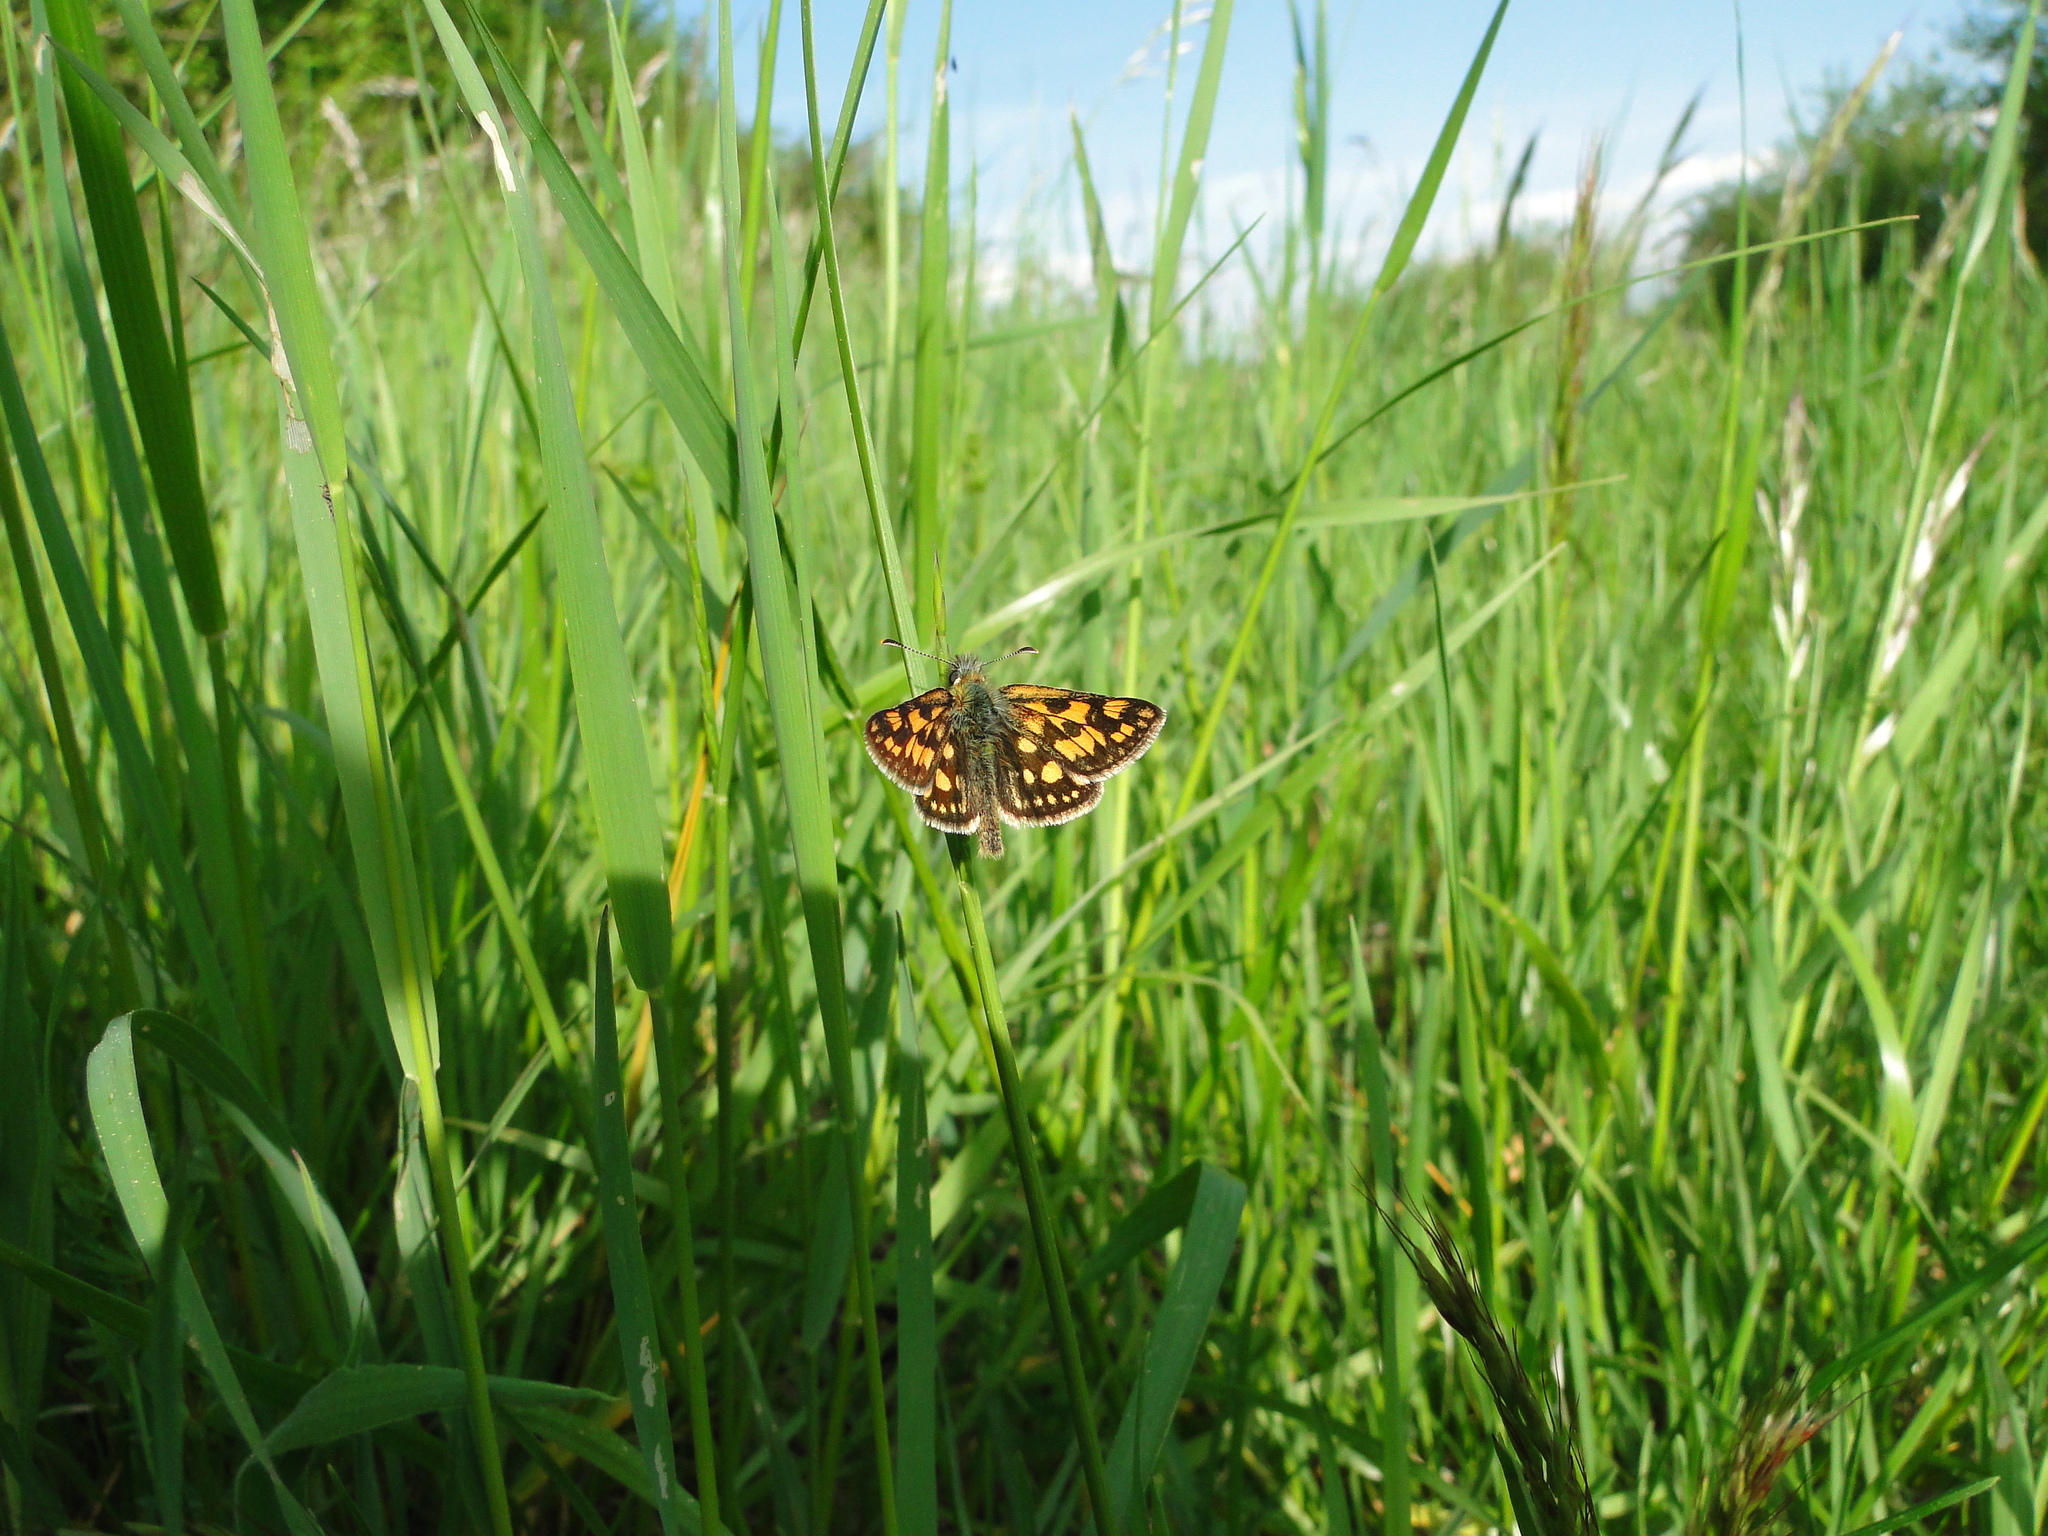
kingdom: Animalia
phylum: Arthropoda
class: Insecta
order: Lepidoptera
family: Hesperiidae
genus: Carterocephalus
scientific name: Carterocephalus palaemon
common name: Chequered skipper
